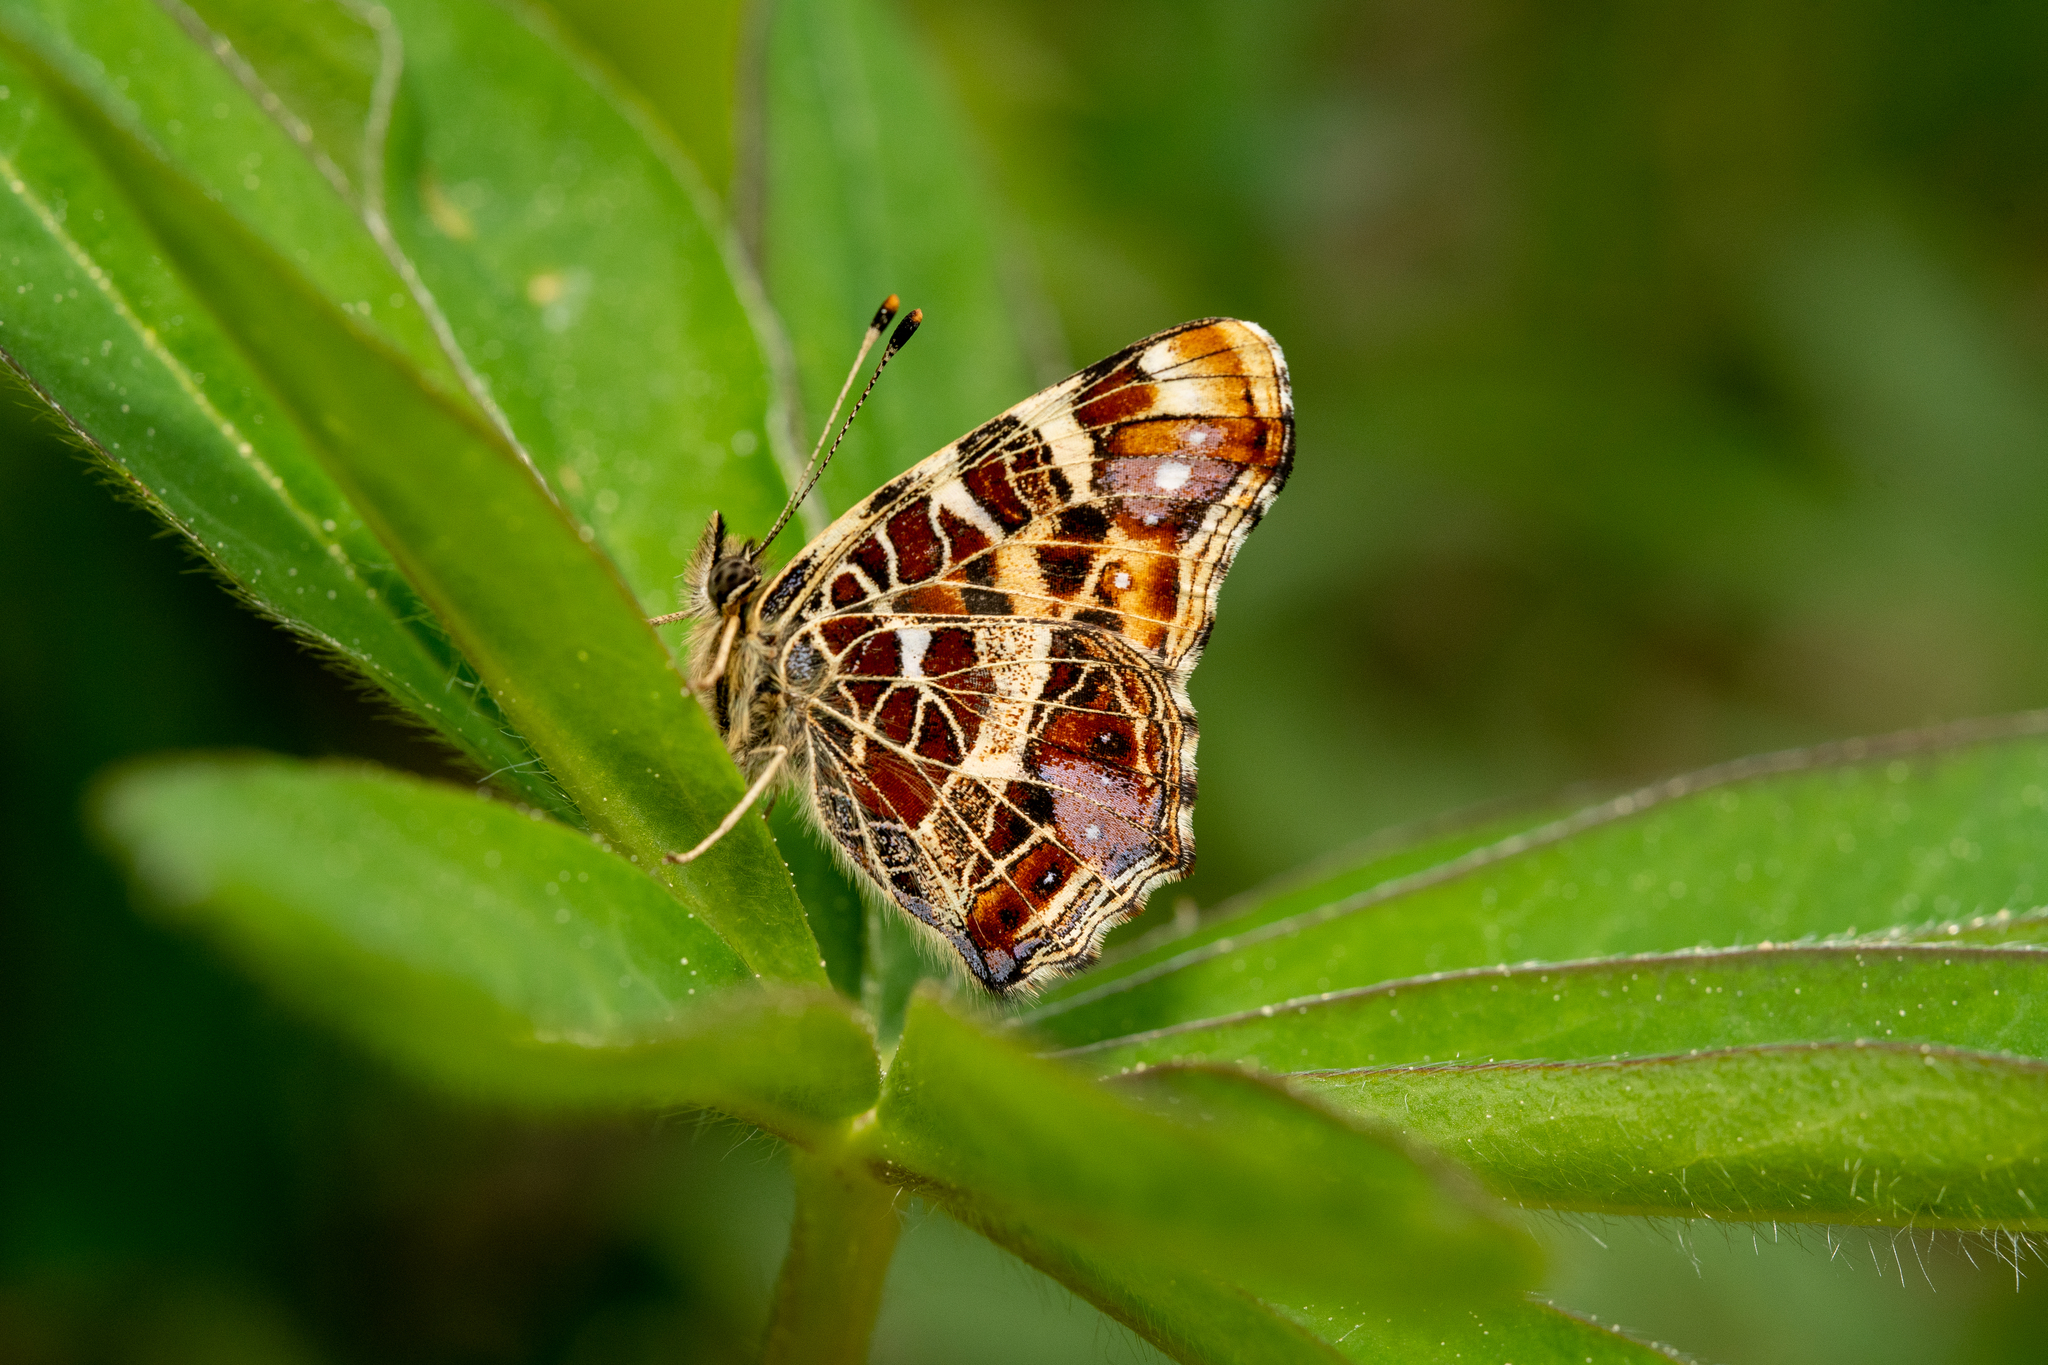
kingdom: Animalia
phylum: Arthropoda
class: Insecta
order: Lepidoptera
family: Nymphalidae
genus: Araschnia
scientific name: Araschnia levana
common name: Map butterfly
